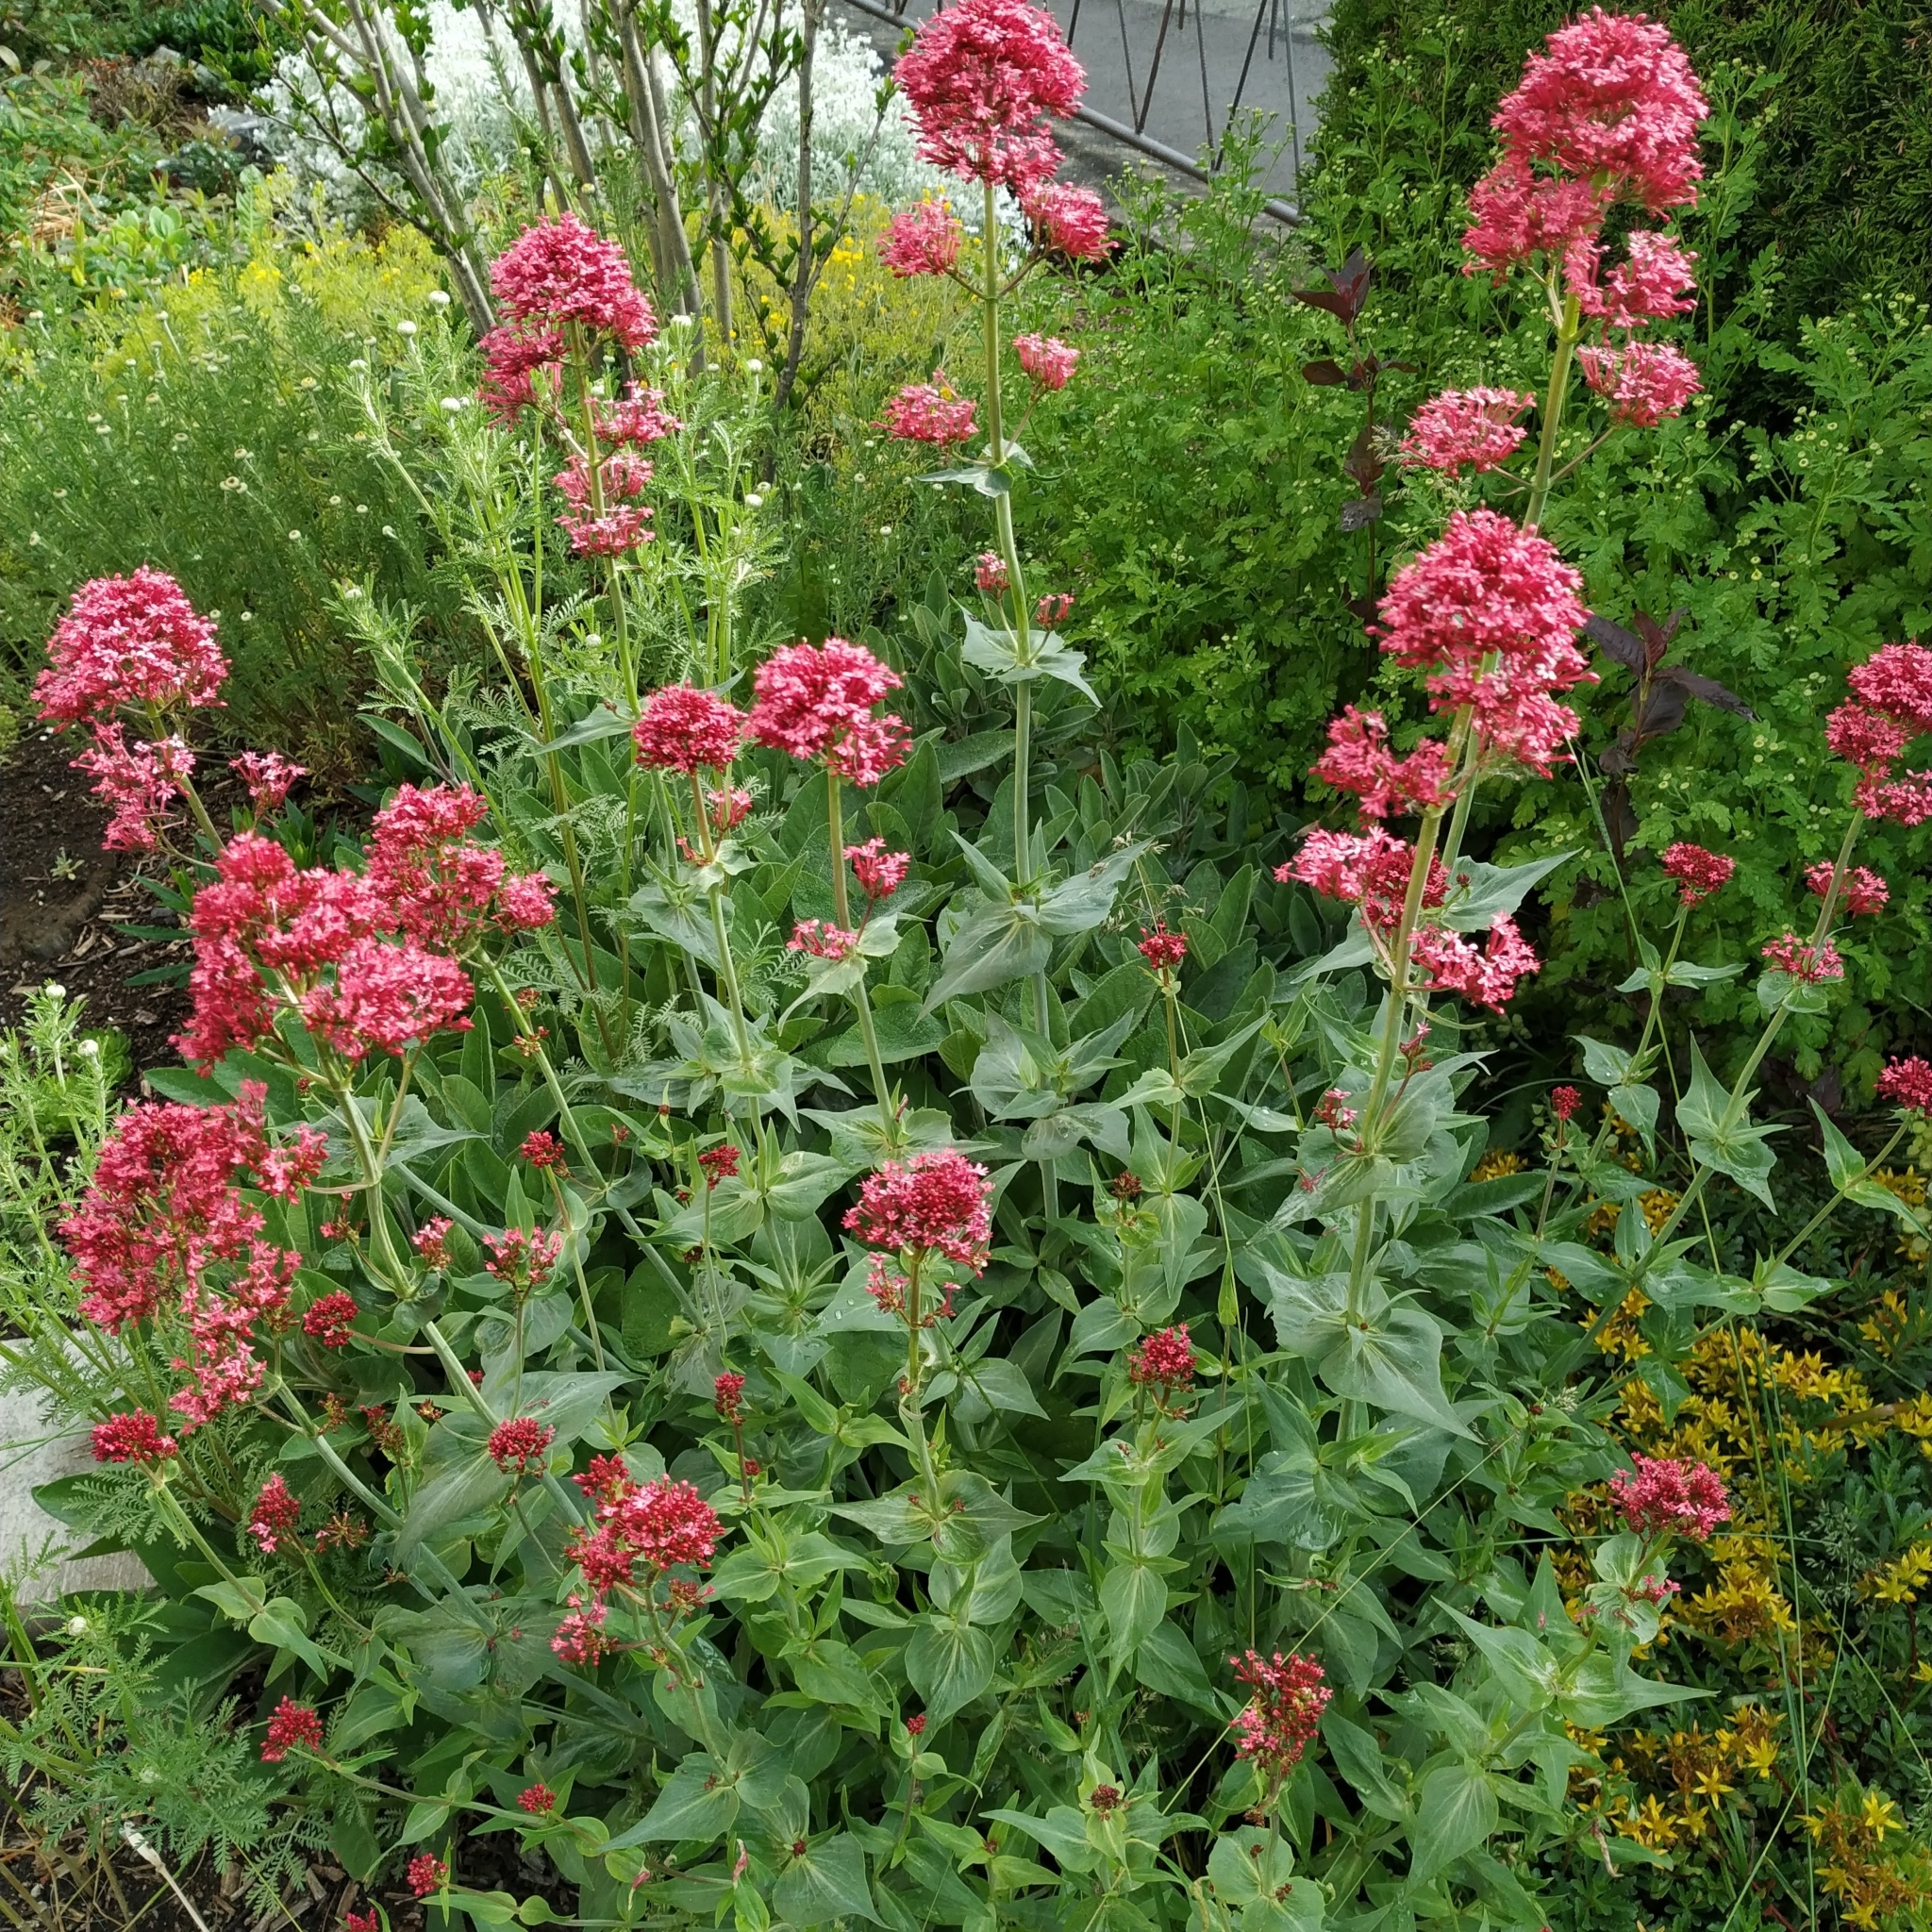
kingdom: Plantae
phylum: Tracheophyta
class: Magnoliopsida
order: Dipsacales
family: Caprifoliaceae
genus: Centranthus
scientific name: Centranthus ruber
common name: Red valerian
